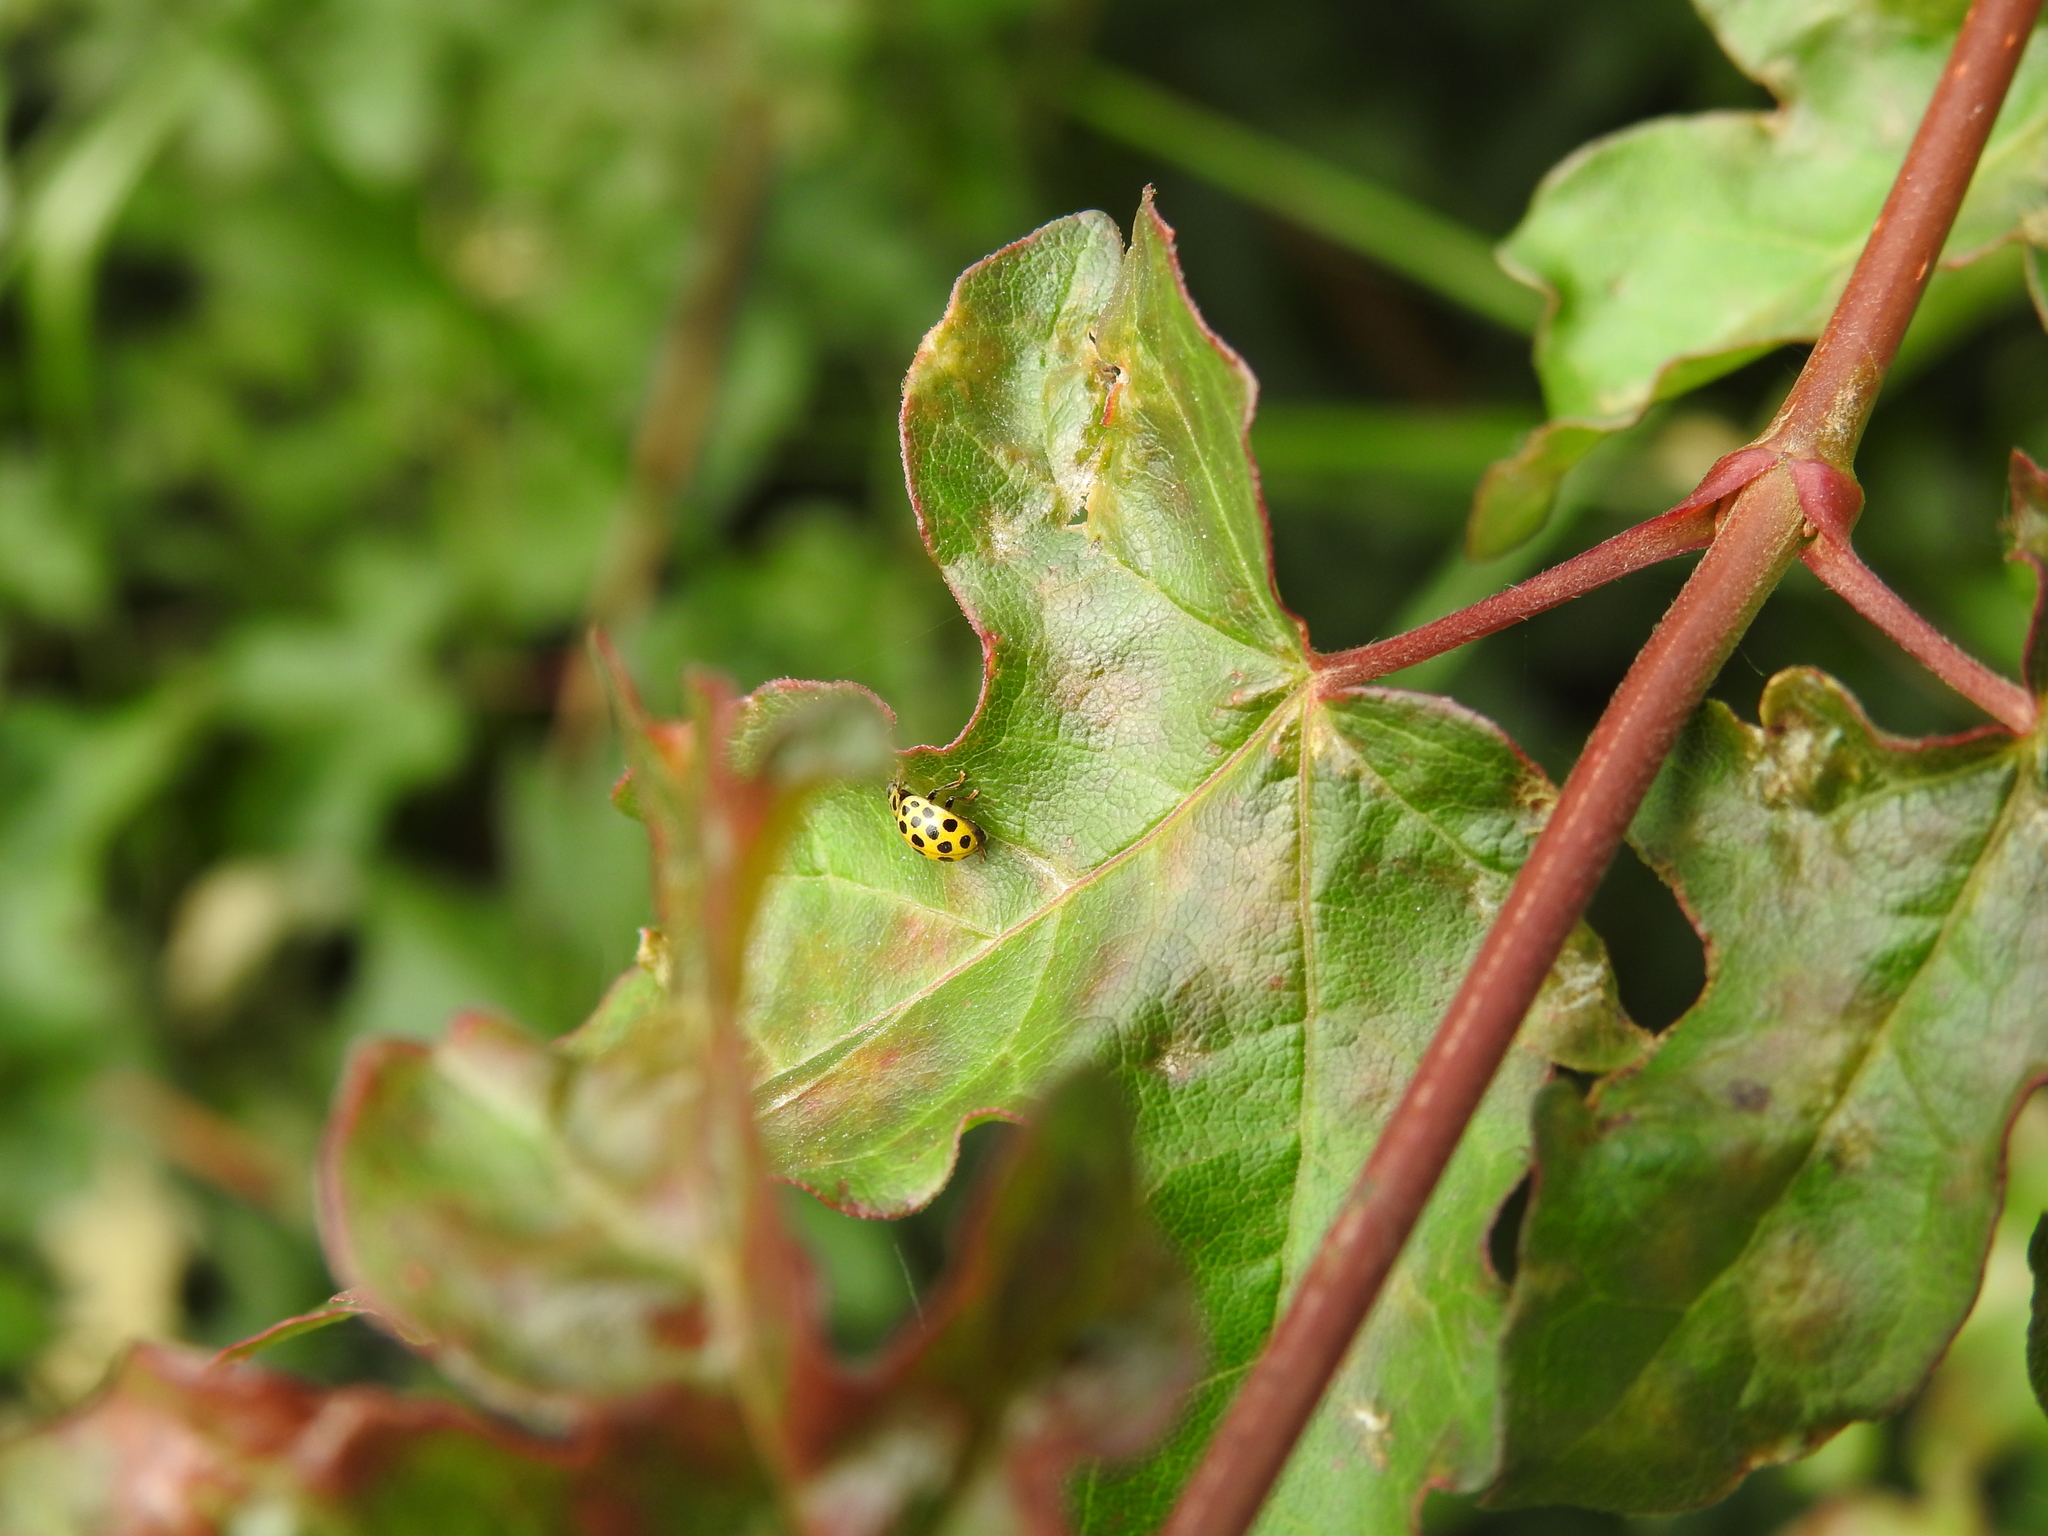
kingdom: Animalia
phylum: Arthropoda
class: Insecta
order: Coleoptera
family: Coccinellidae
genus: Psyllobora
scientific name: Psyllobora vigintiduopunctata
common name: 22-spot ladybird
